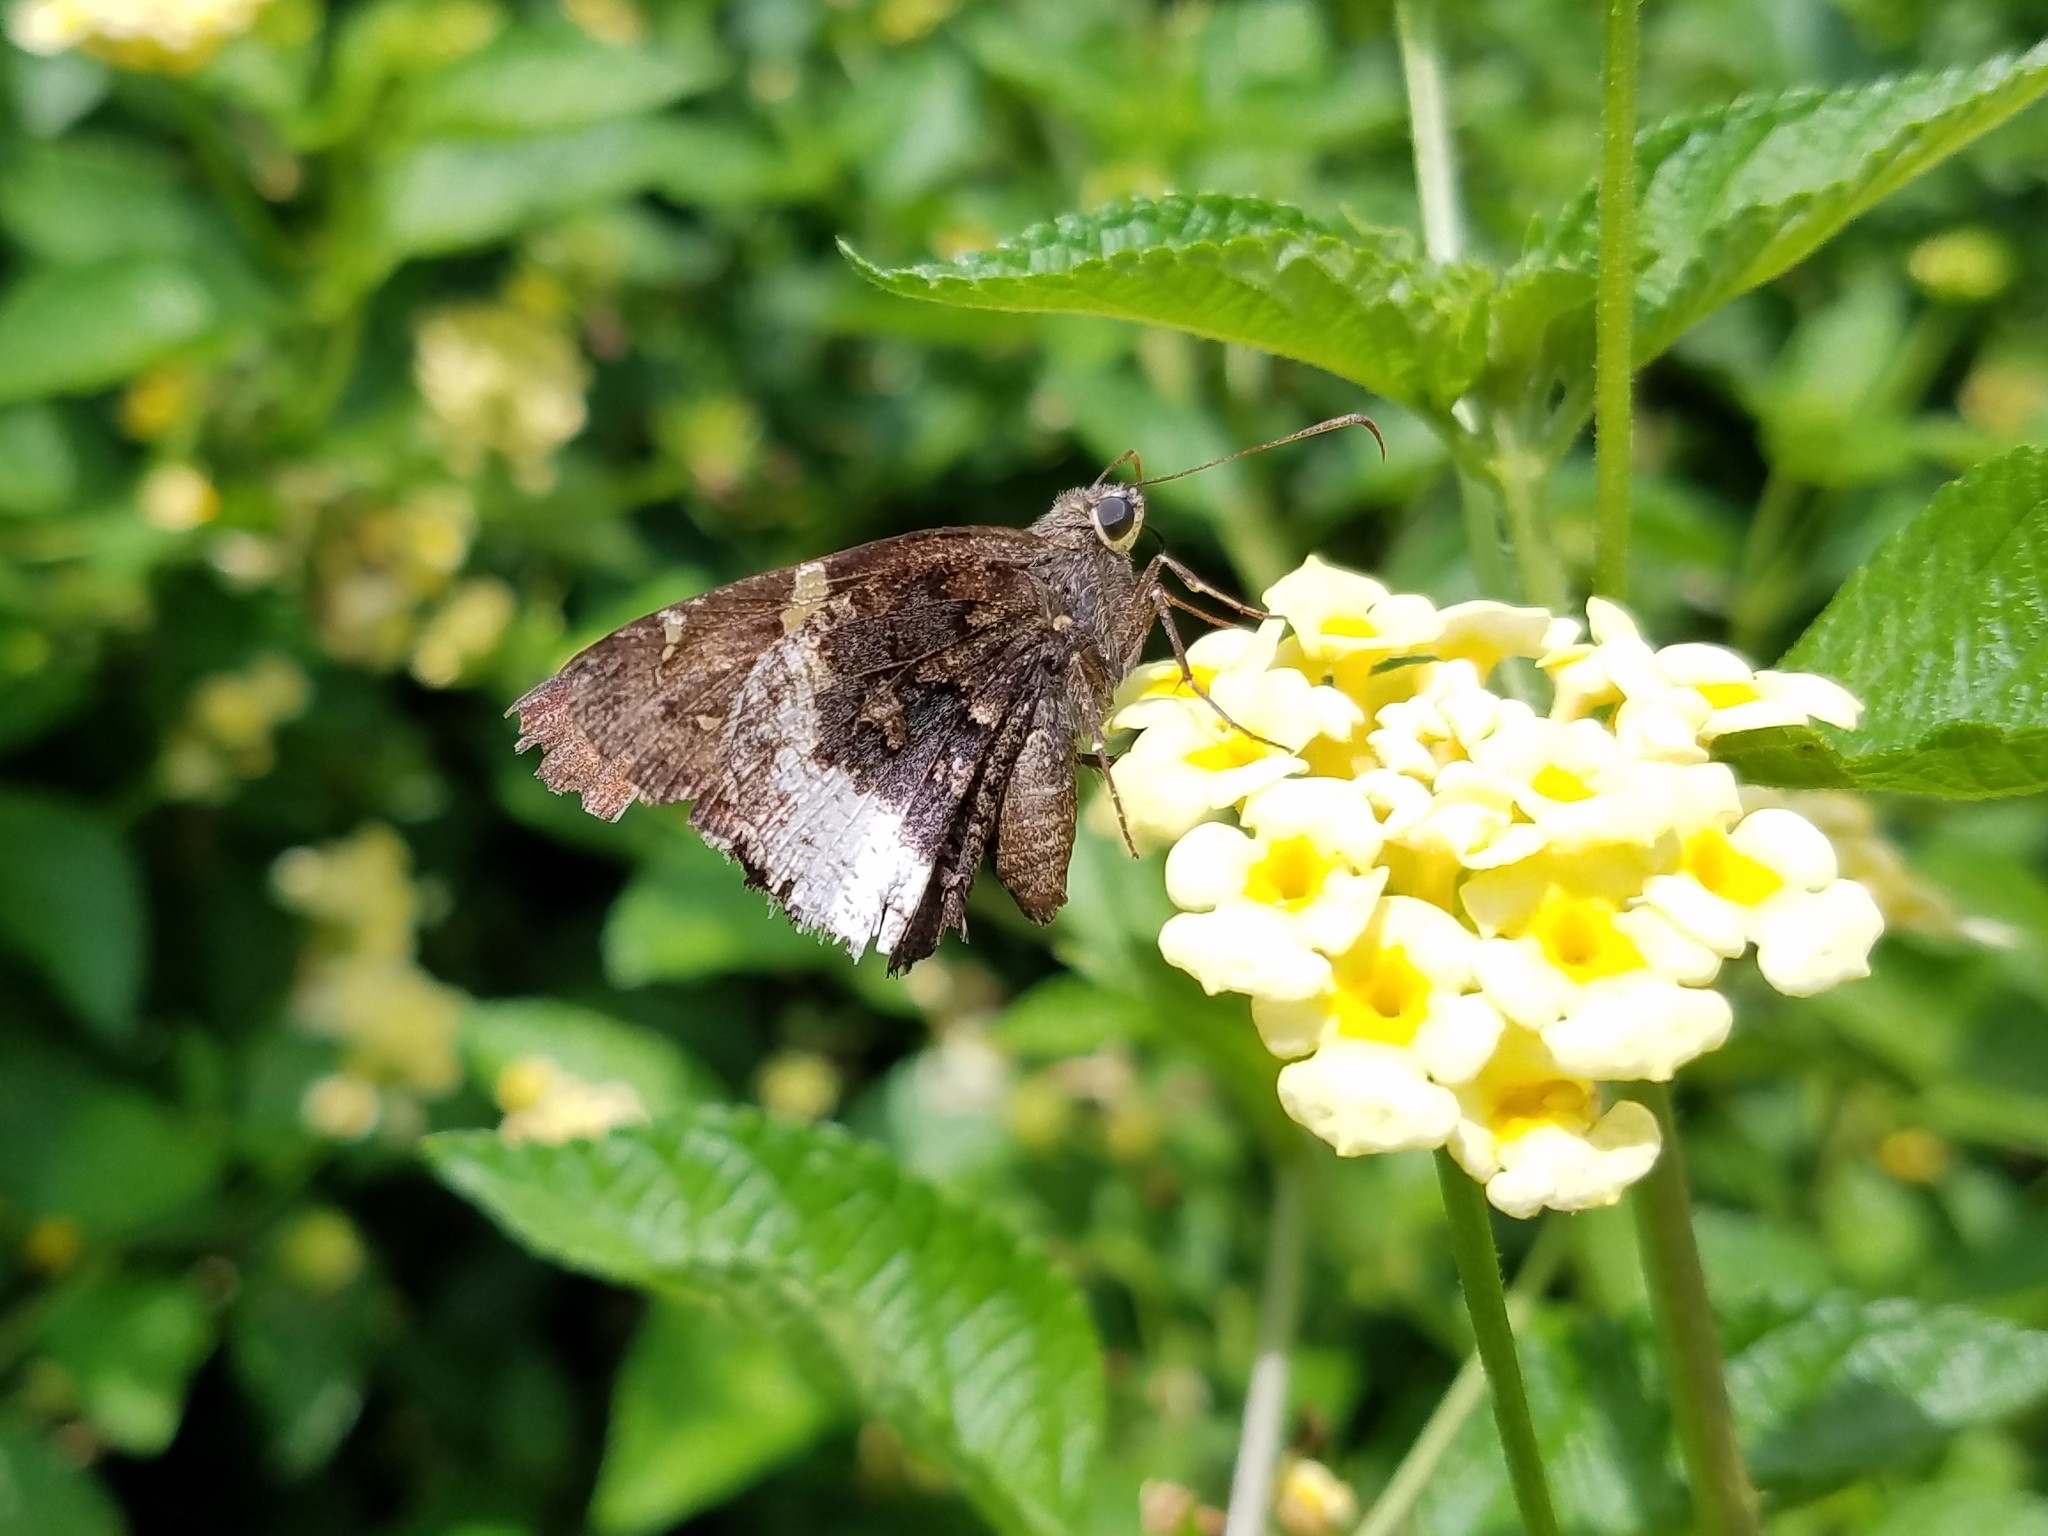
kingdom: Animalia
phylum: Arthropoda
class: Insecta
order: Lepidoptera
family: Hesperiidae
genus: Thorybes
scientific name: Thorybes lyciades
